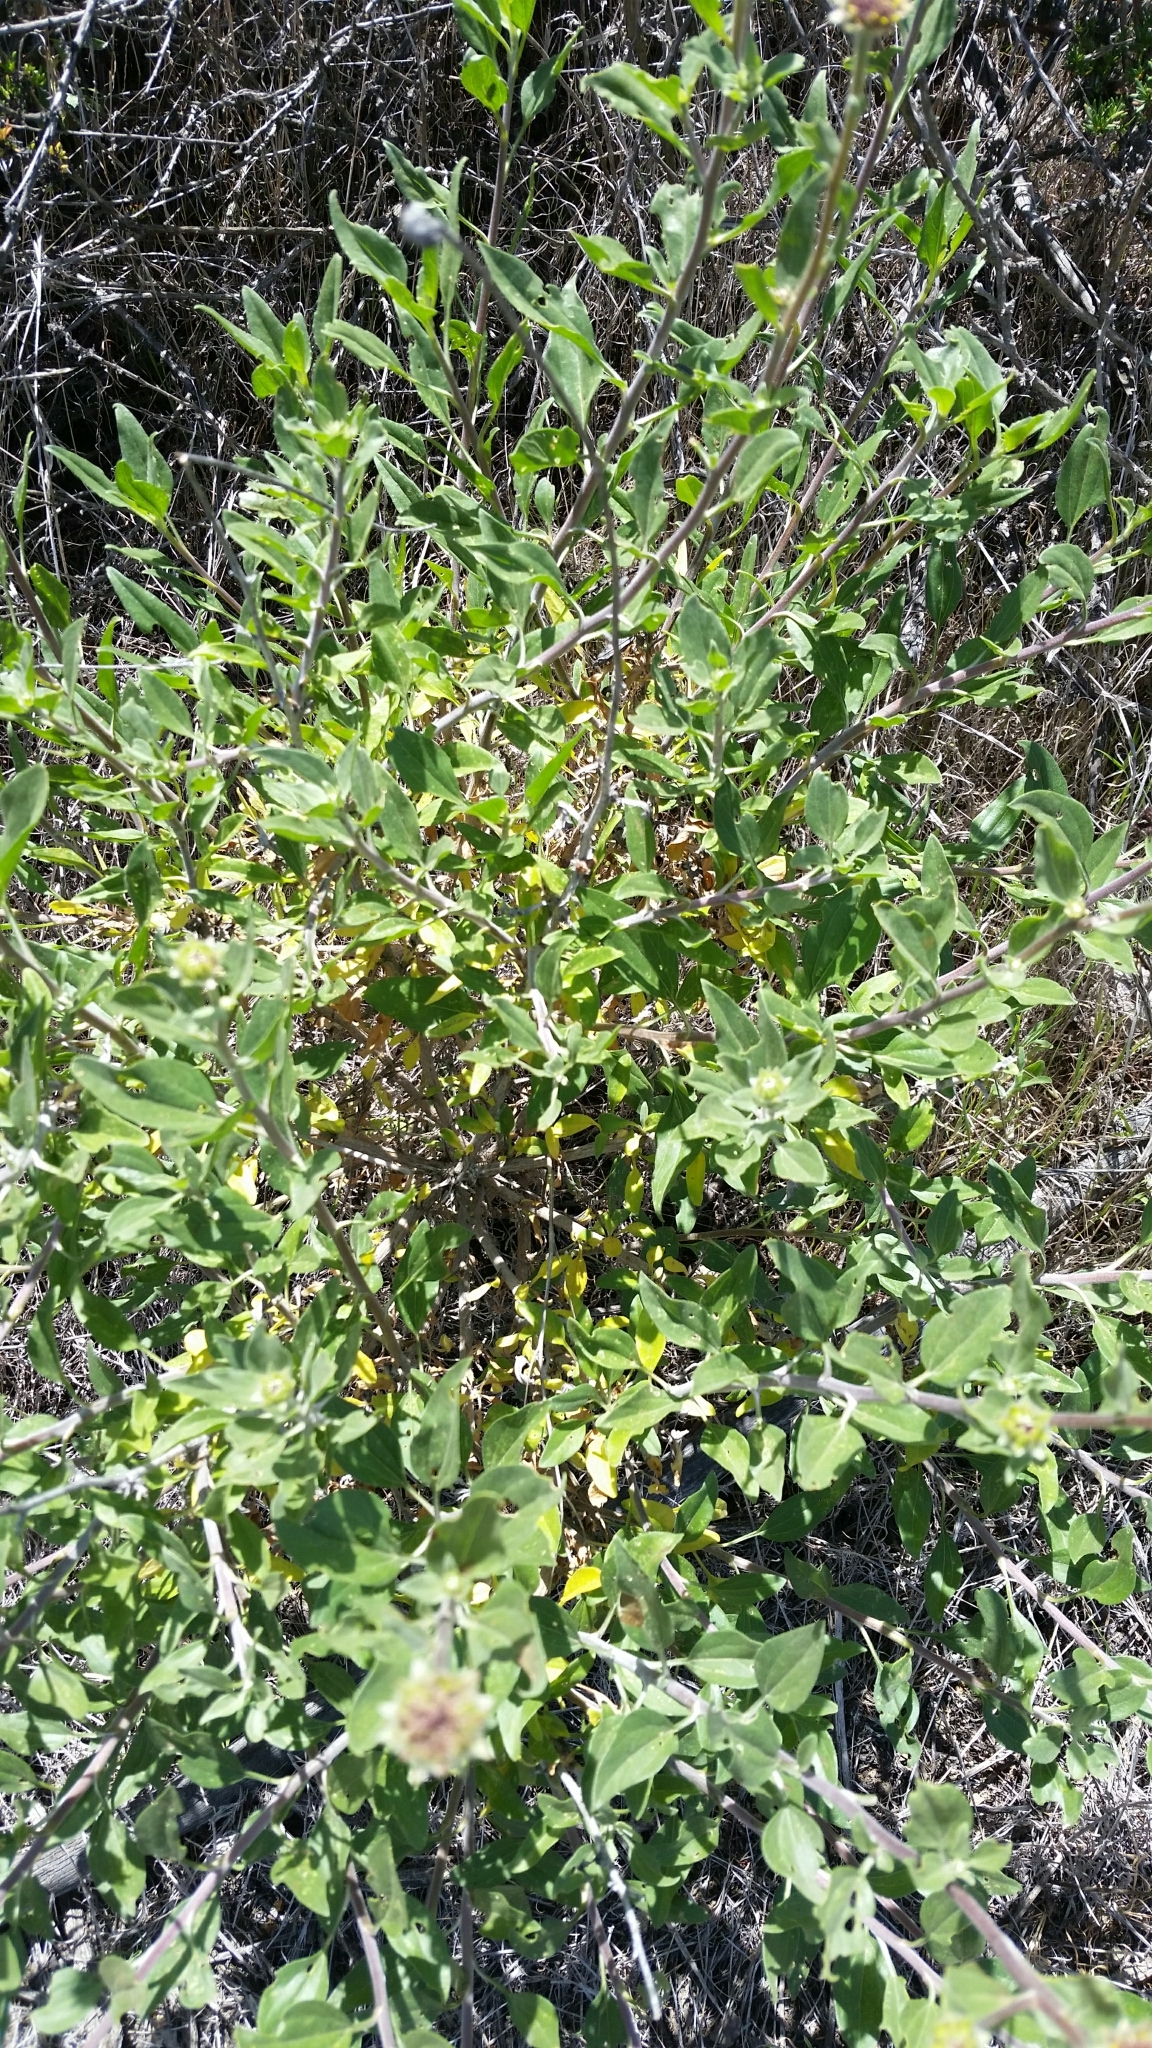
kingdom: Plantae
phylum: Tracheophyta
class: Magnoliopsida
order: Asterales
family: Asteraceae
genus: Encelia
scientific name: Encelia californica
